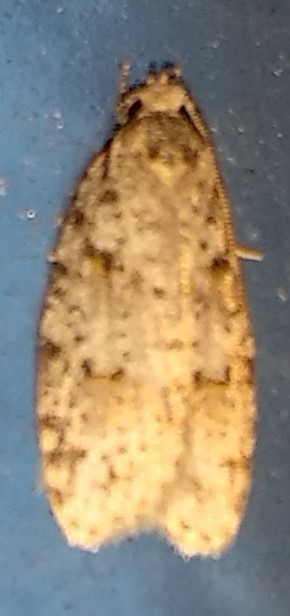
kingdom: Animalia
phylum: Arthropoda
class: Insecta
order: Lepidoptera
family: Depressariidae
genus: Bibarrambla
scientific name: Bibarrambla allenella
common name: Bog bibarrambla moth
